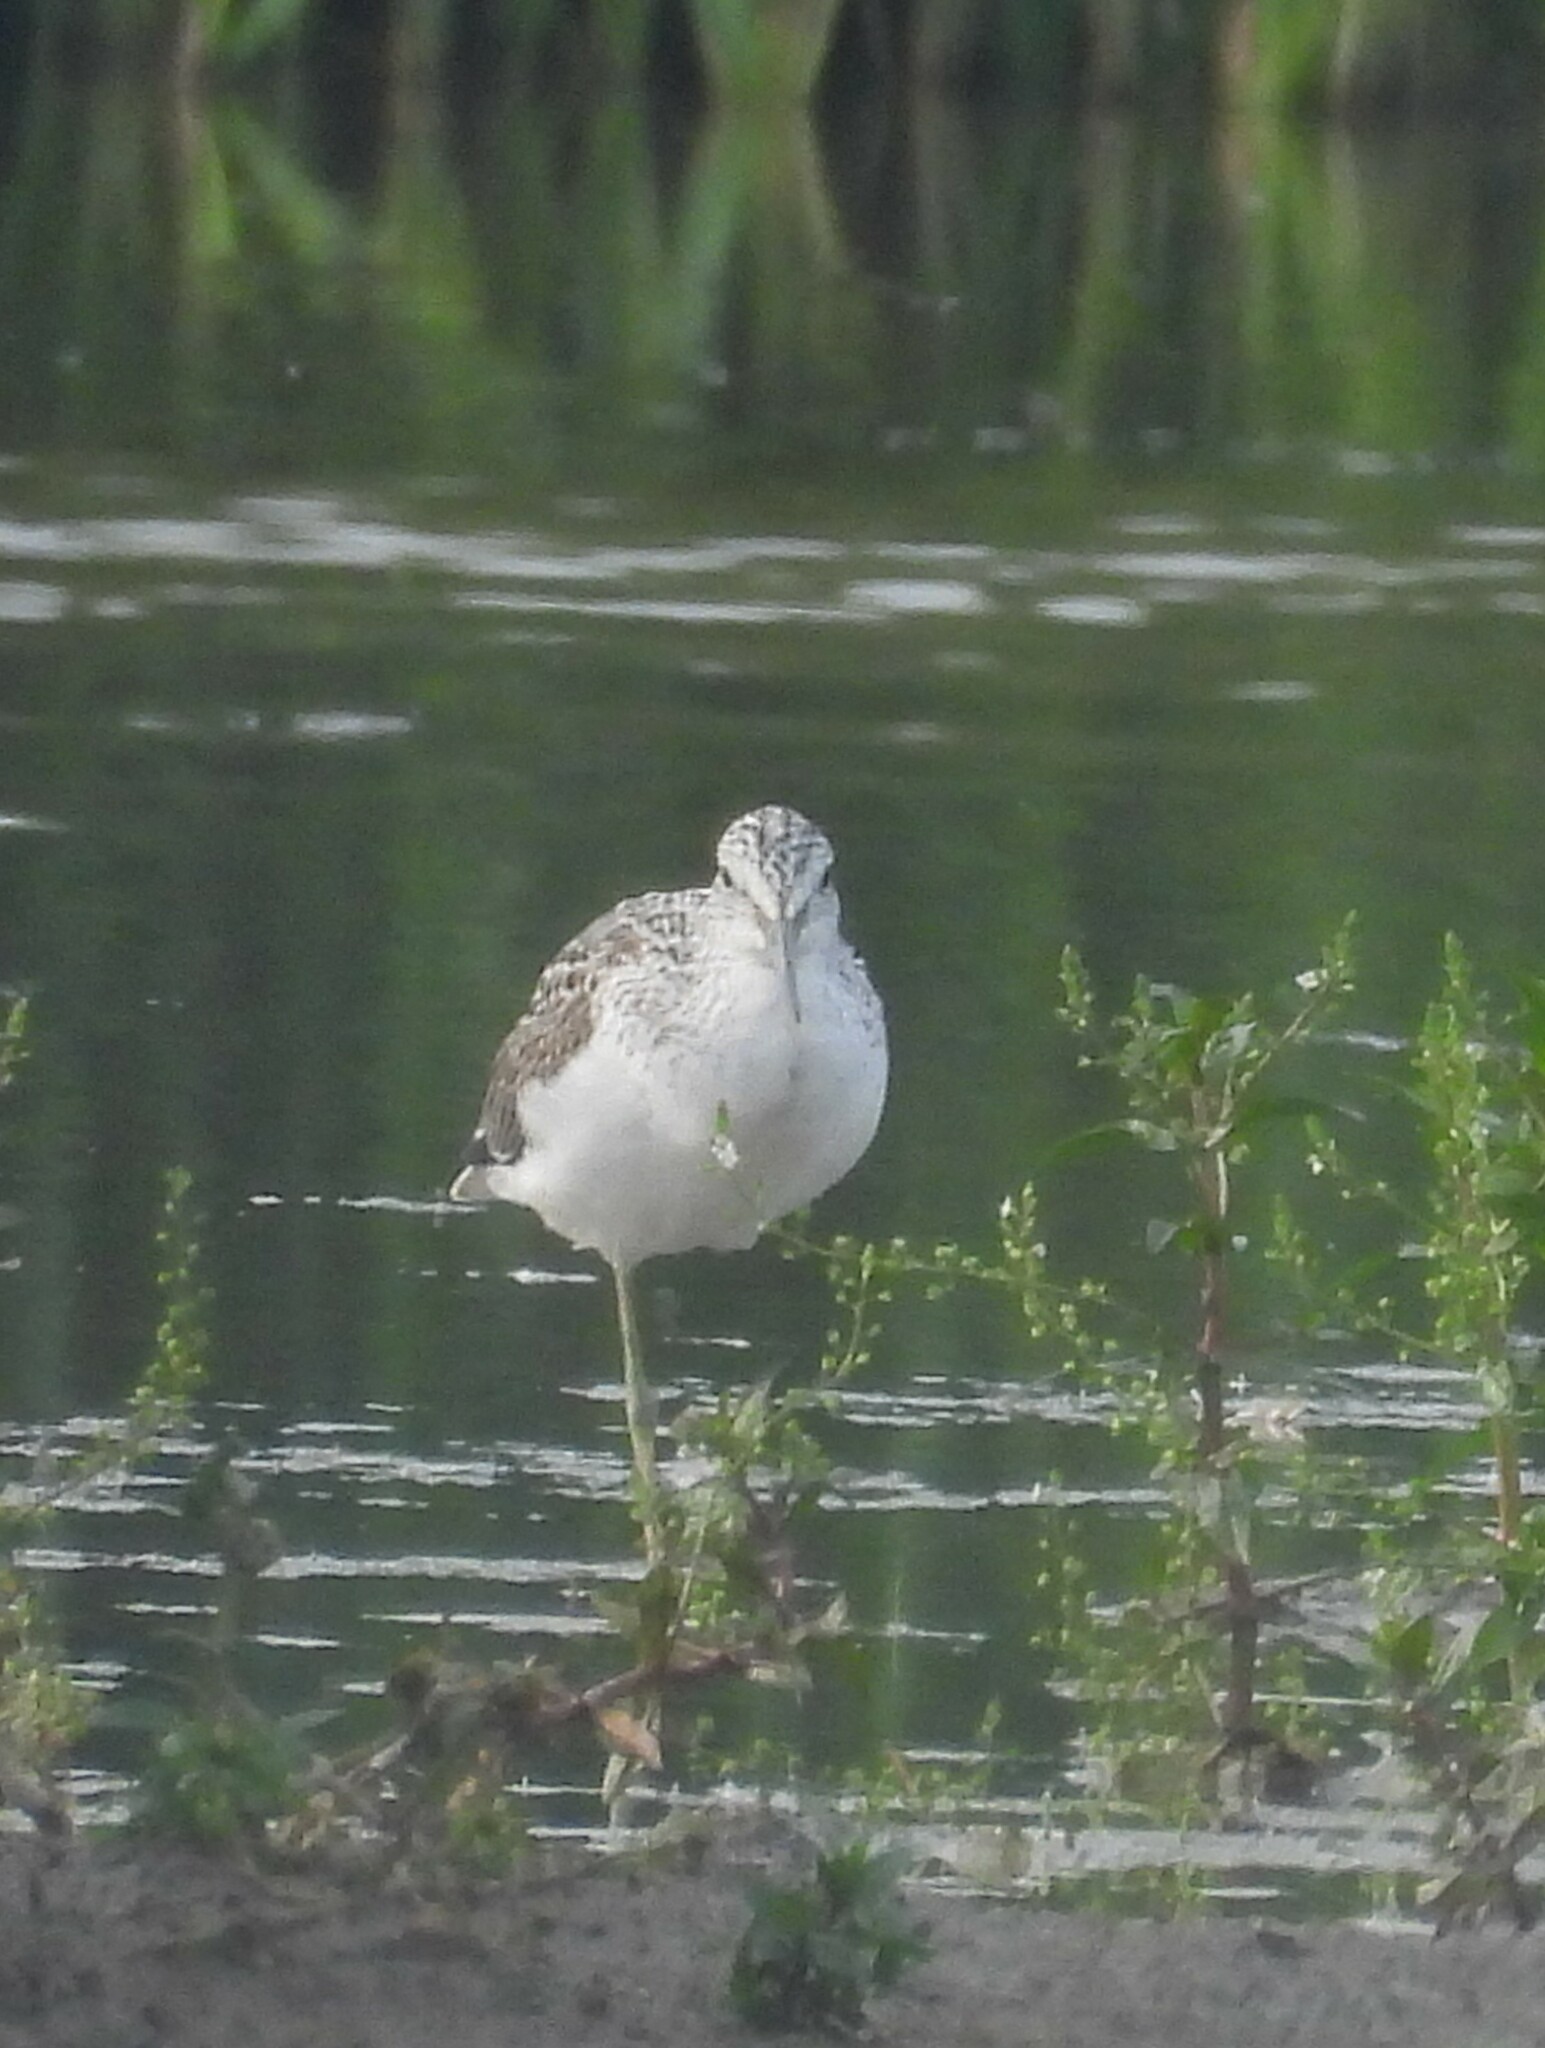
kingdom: Animalia
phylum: Chordata
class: Aves
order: Charadriiformes
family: Scolopacidae
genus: Tringa
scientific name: Tringa nebularia
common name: Common greenshank
